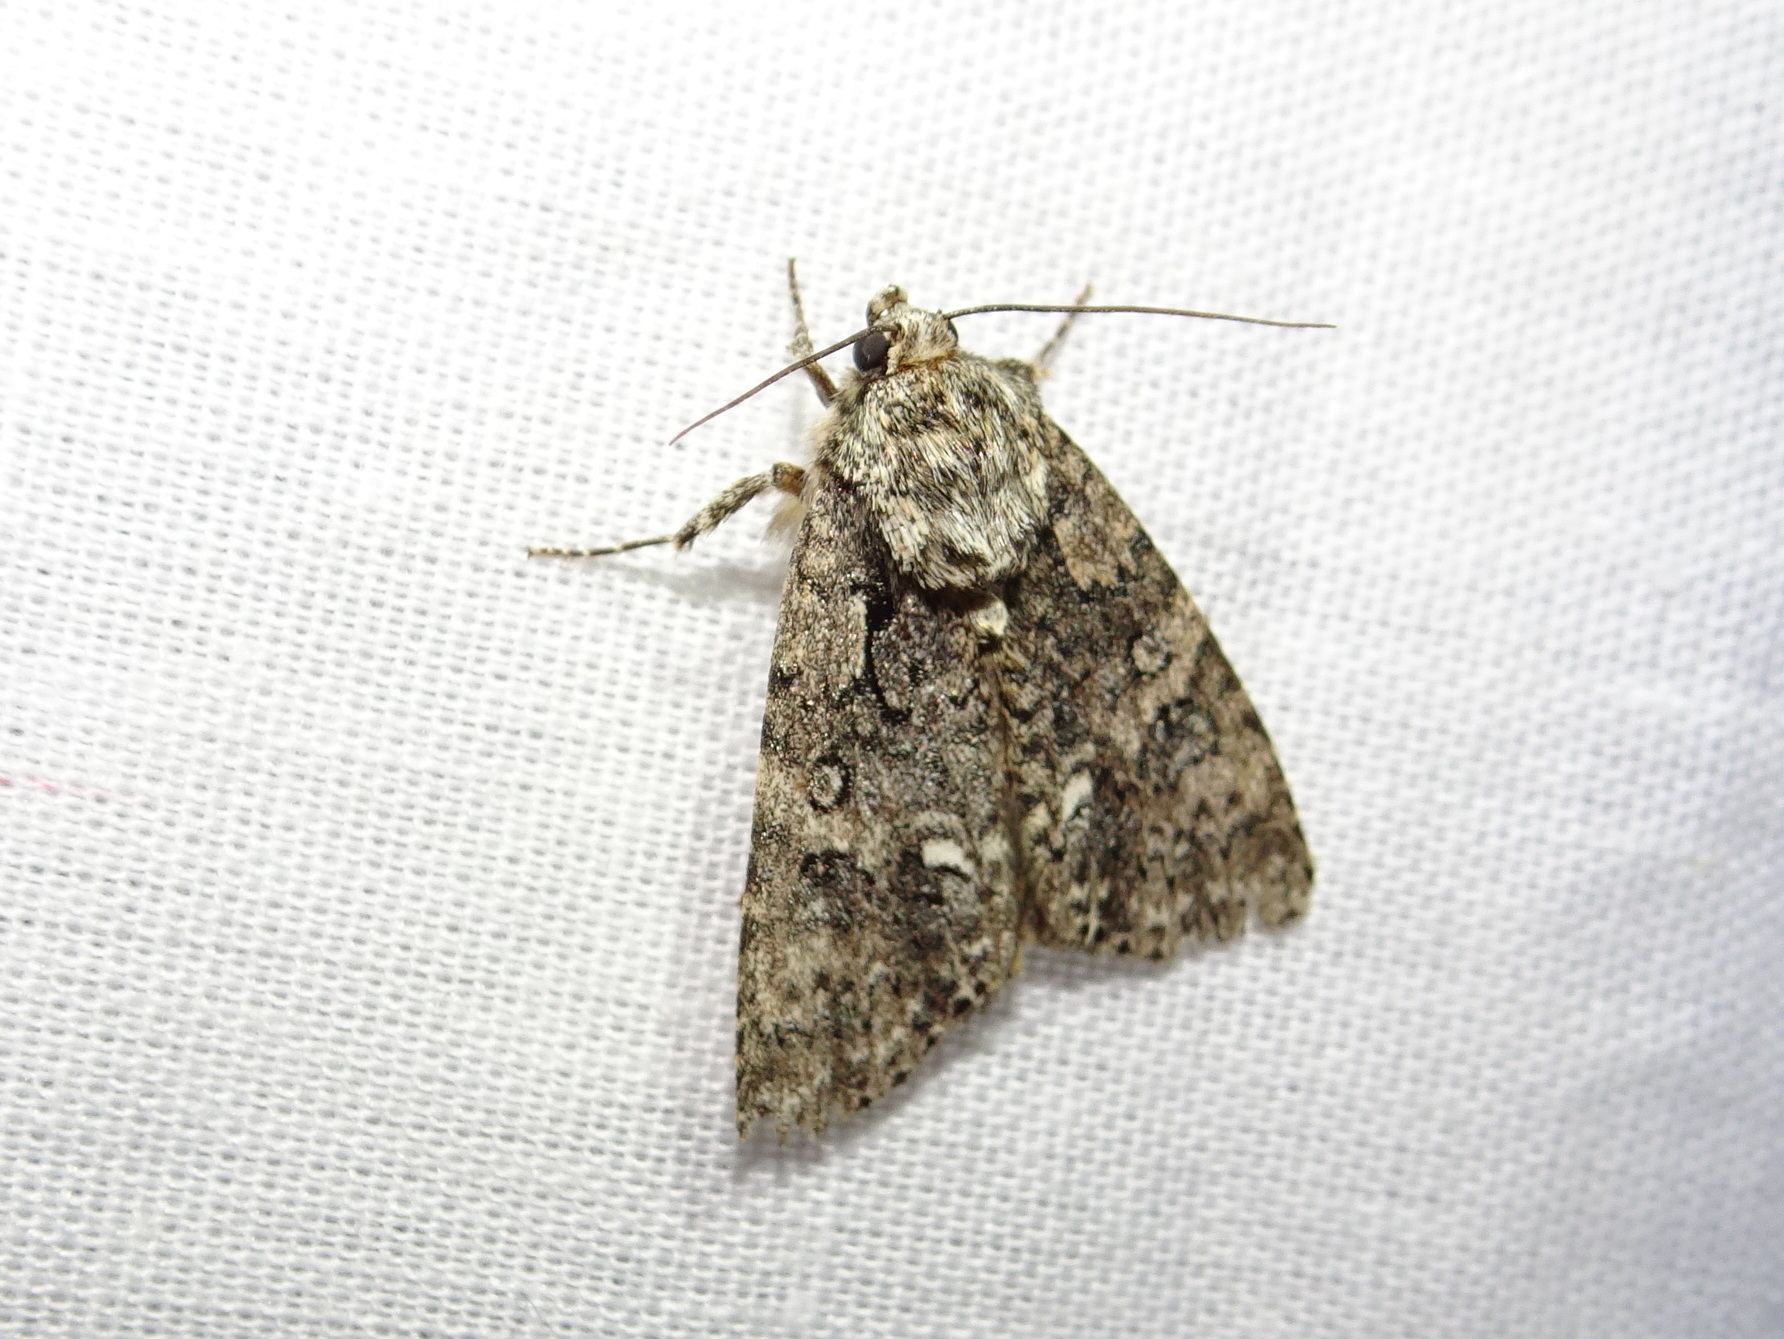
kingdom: Animalia
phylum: Arthropoda
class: Insecta
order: Lepidoptera
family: Noctuidae
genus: Acronicta
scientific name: Acronicta rumicis
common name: Knot grass
